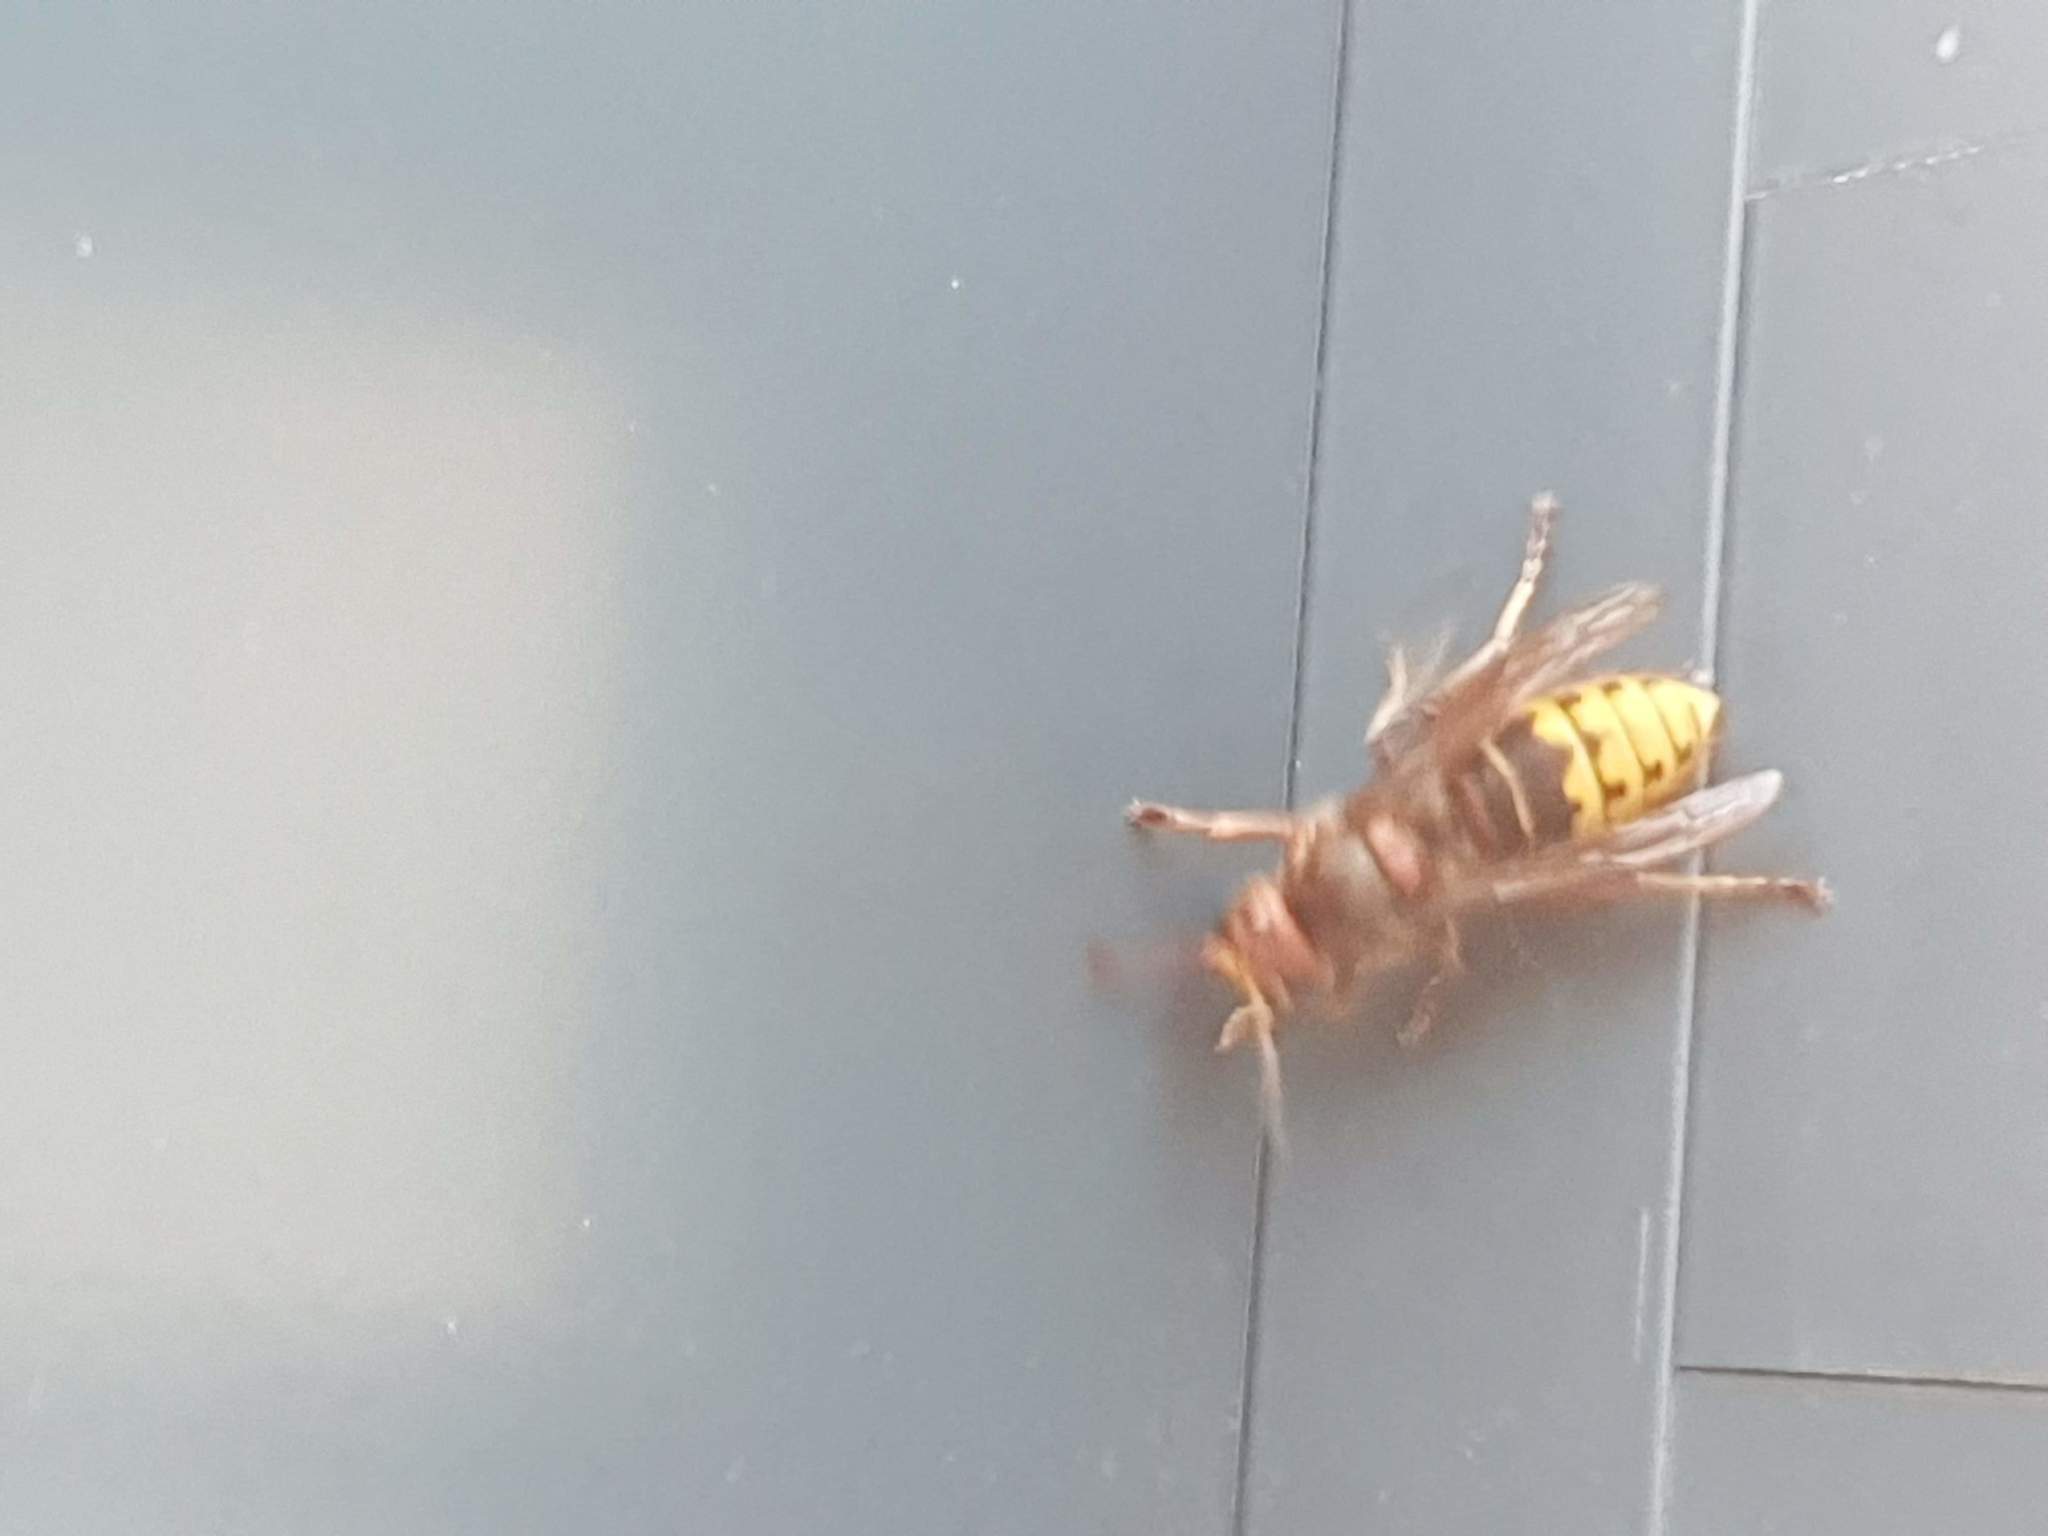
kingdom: Animalia
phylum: Arthropoda
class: Insecta
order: Hymenoptera
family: Vespidae
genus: Vespa
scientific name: Vespa crabro
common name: Hornet
